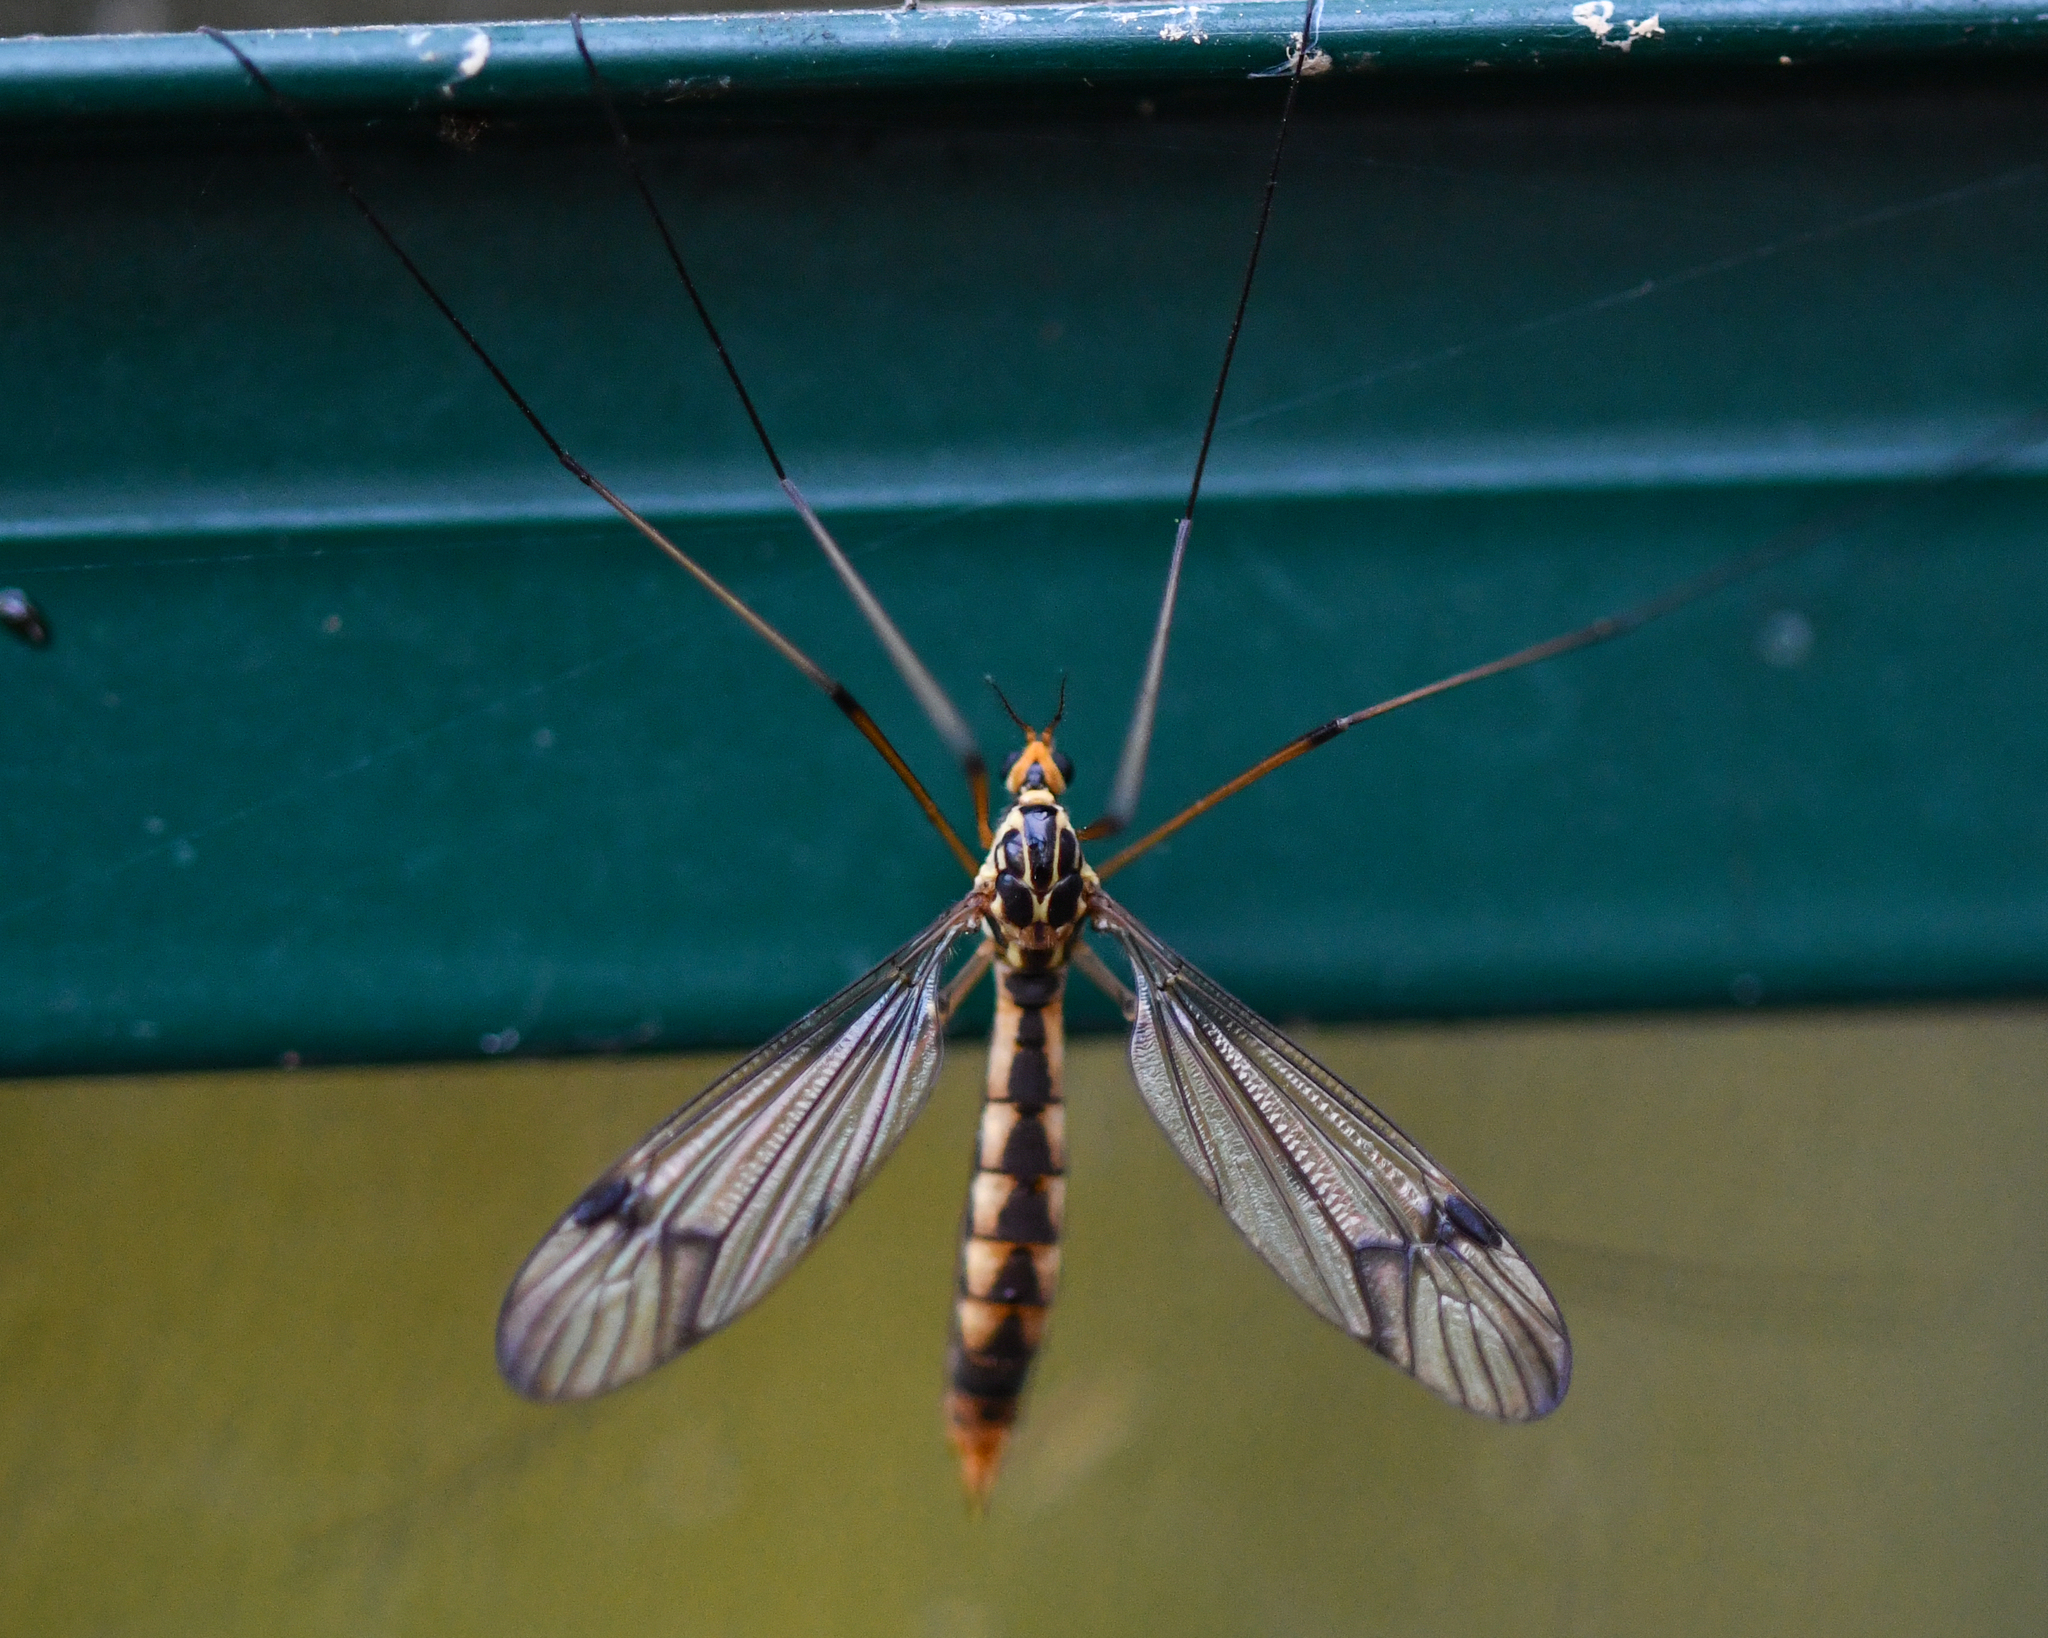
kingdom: Animalia
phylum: Arthropoda
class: Insecta
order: Diptera
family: Tipulidae
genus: Nephrotoma
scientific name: Nephrotoma quadrifaria
